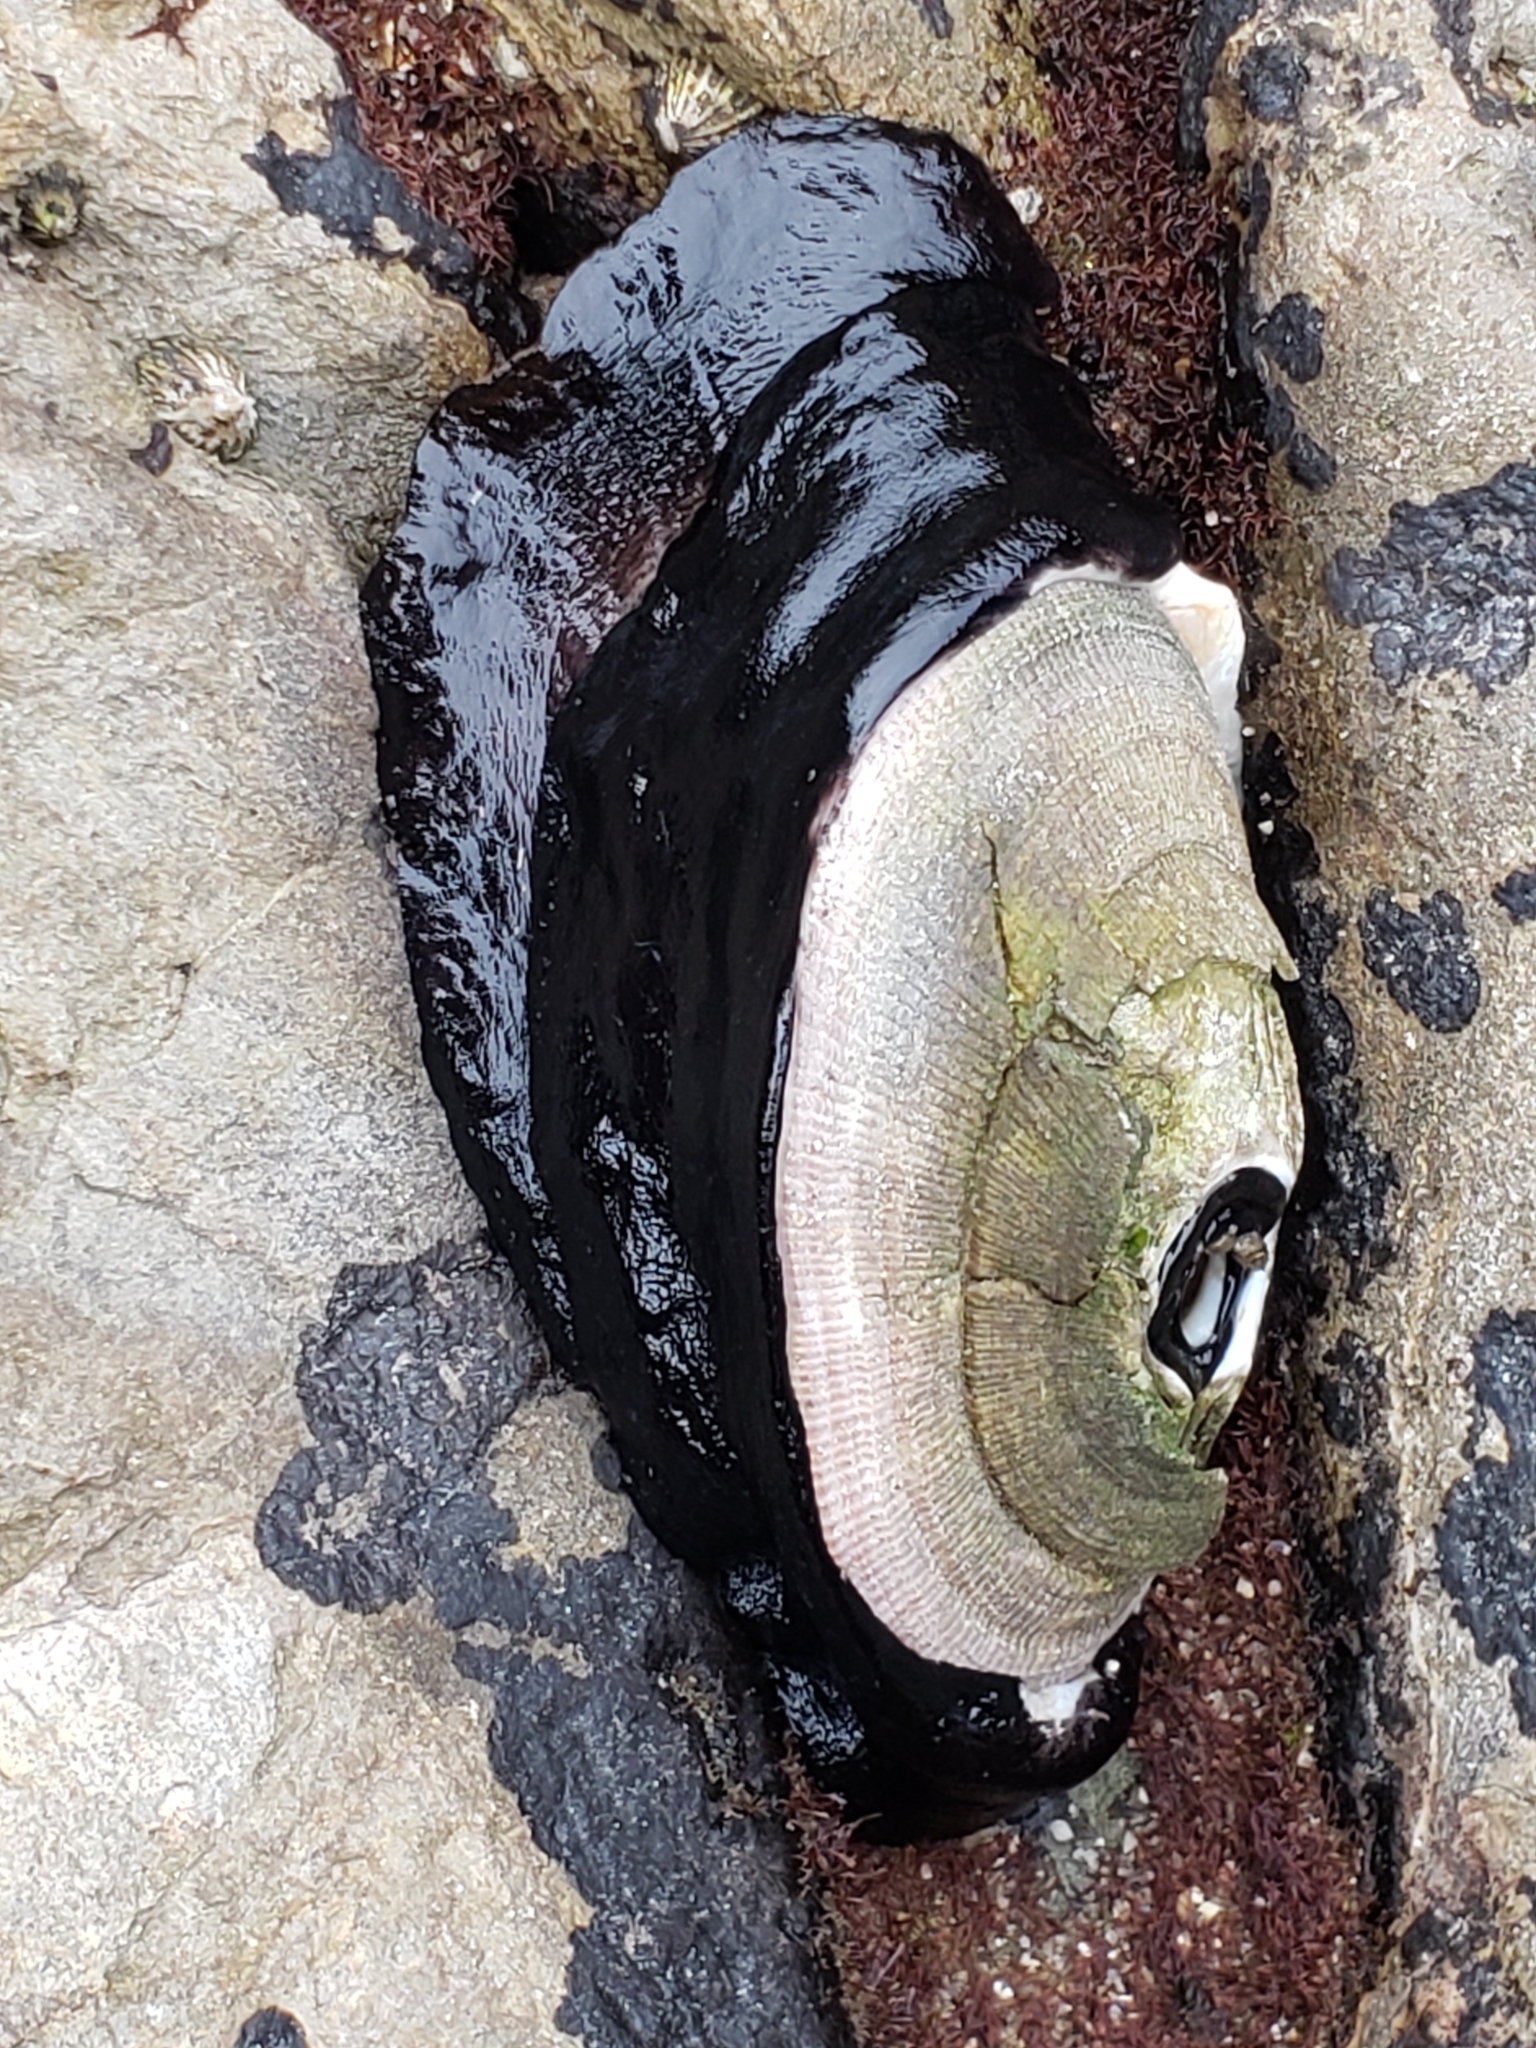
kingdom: Animalia
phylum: Mollusca
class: Gastropoda
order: Lepetellida
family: Fissurellidae
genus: Megathura
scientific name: Megathura crenulata
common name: Giant keyhole limpet
